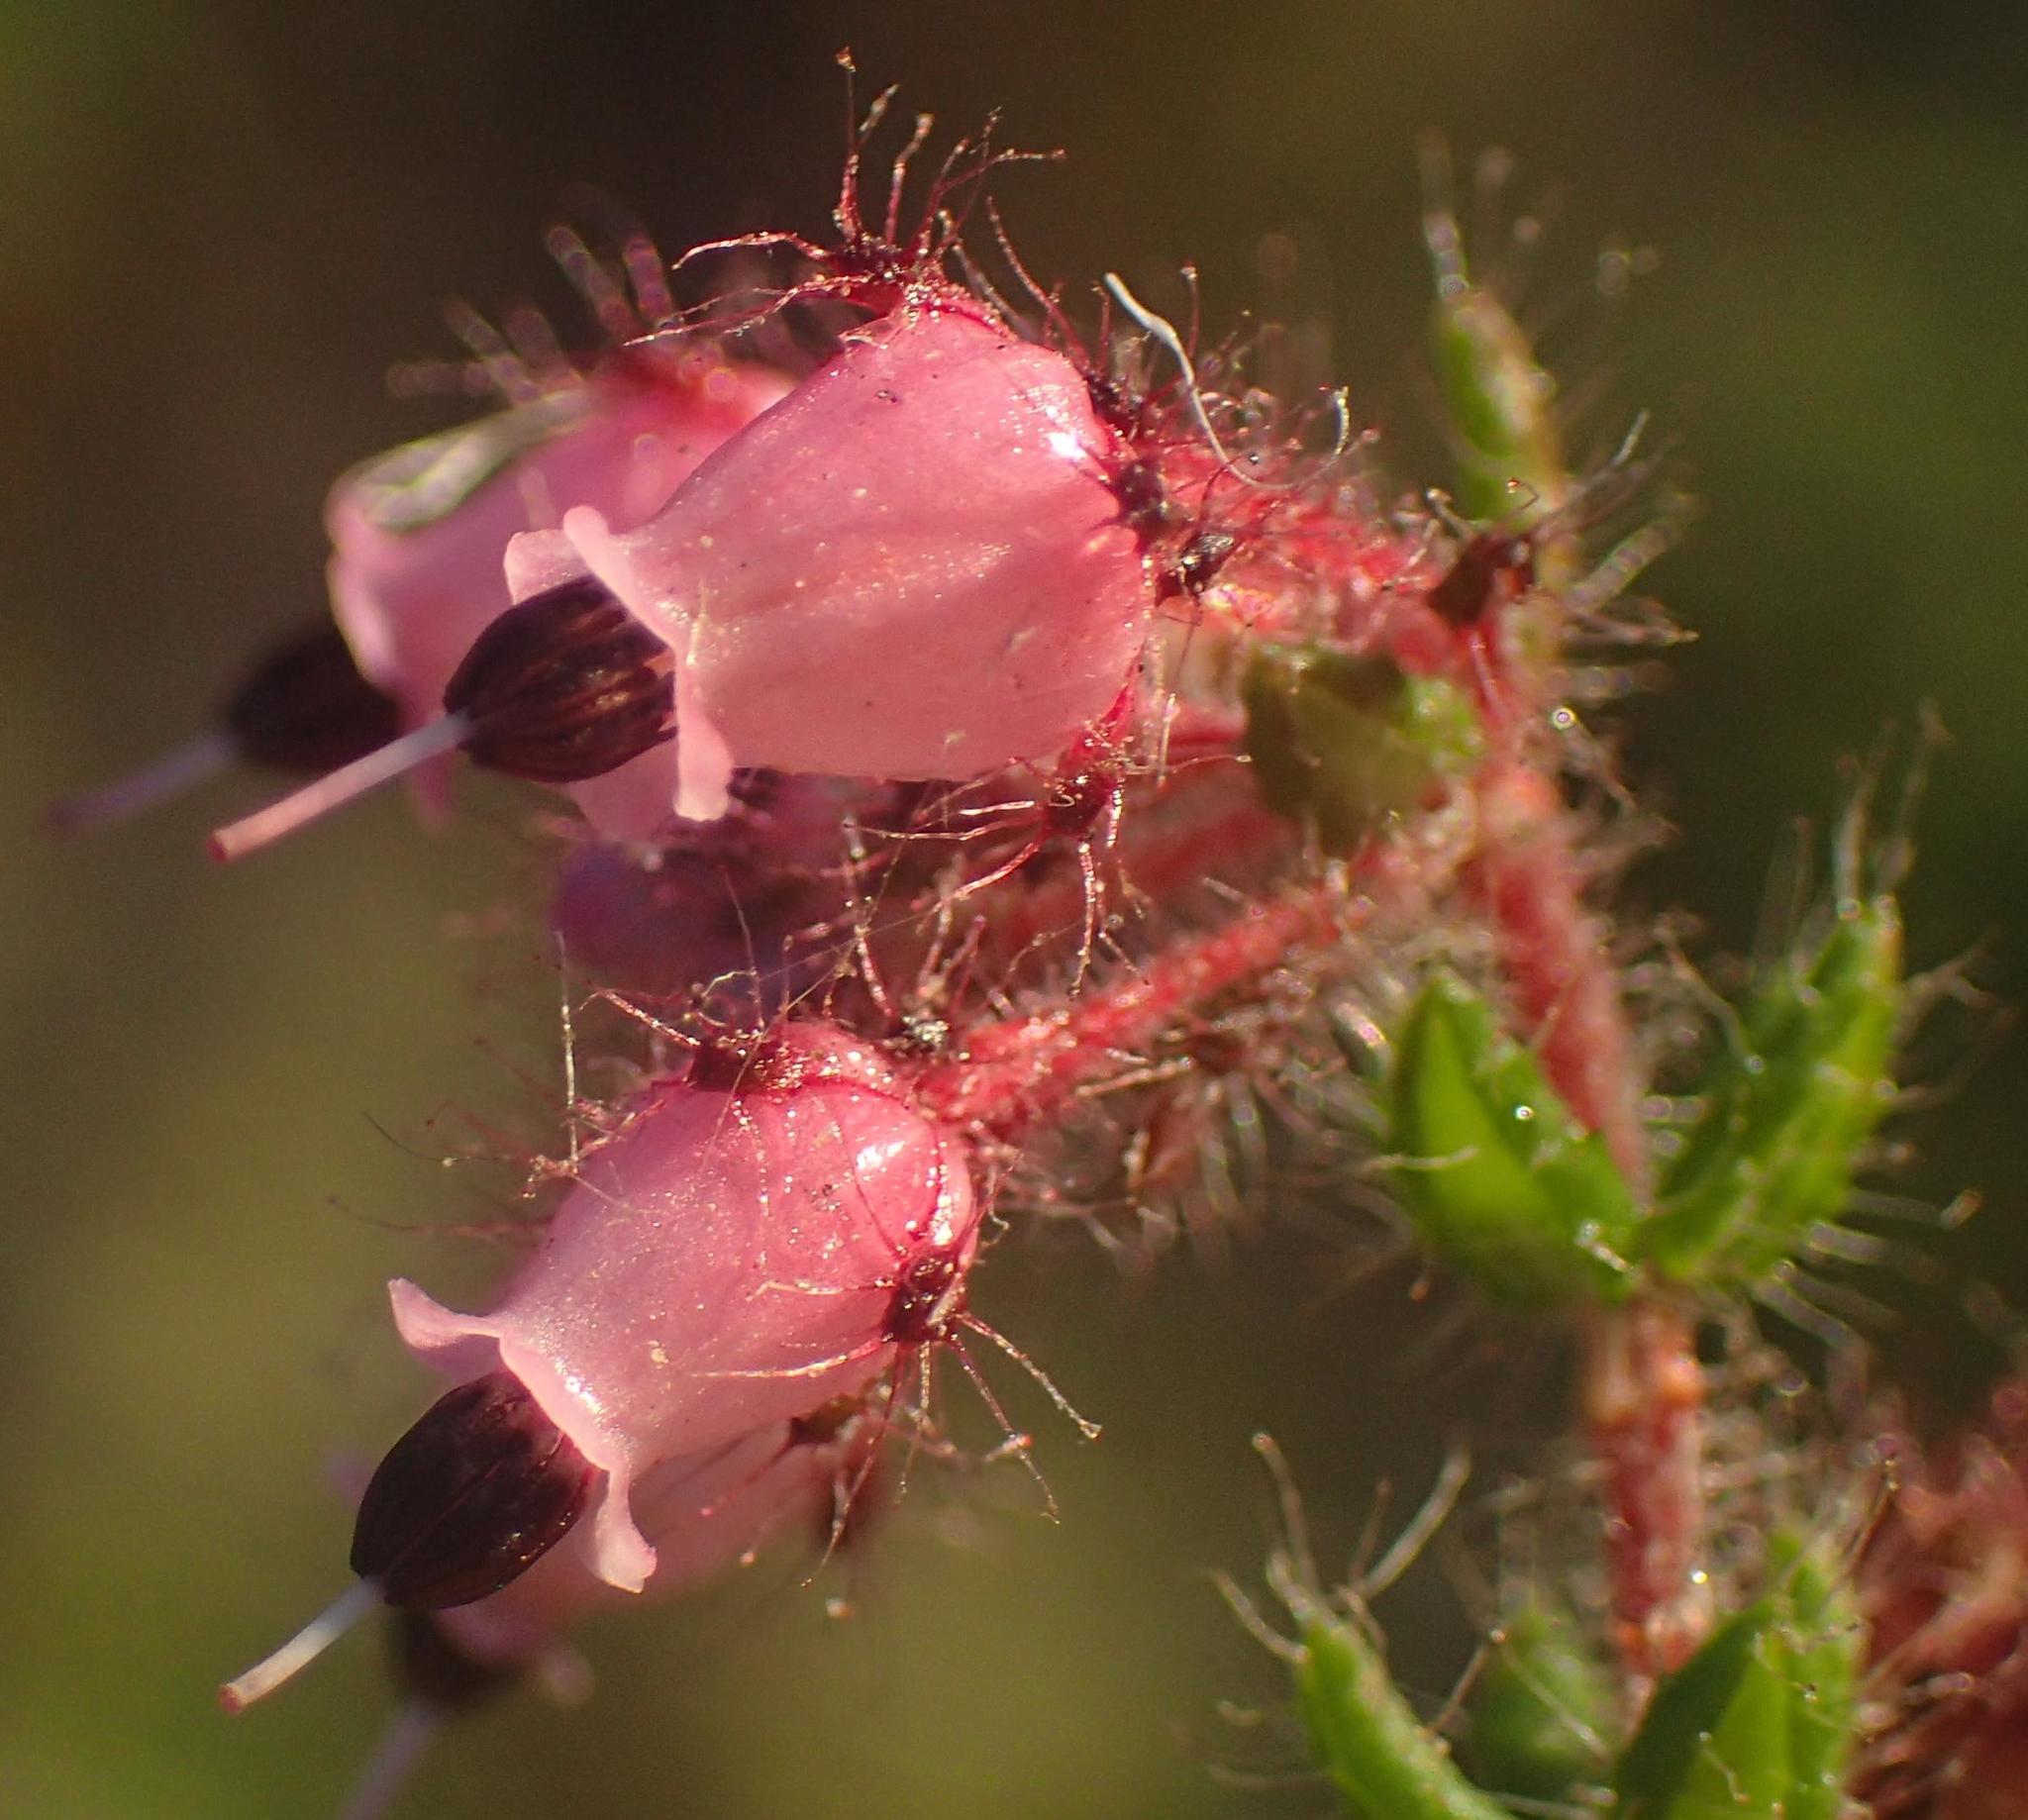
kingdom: Plantae
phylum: Tracheophyta
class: Magnoliopsida
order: Ericales
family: Ericaceae
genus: Erica
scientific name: Erica aneimena
